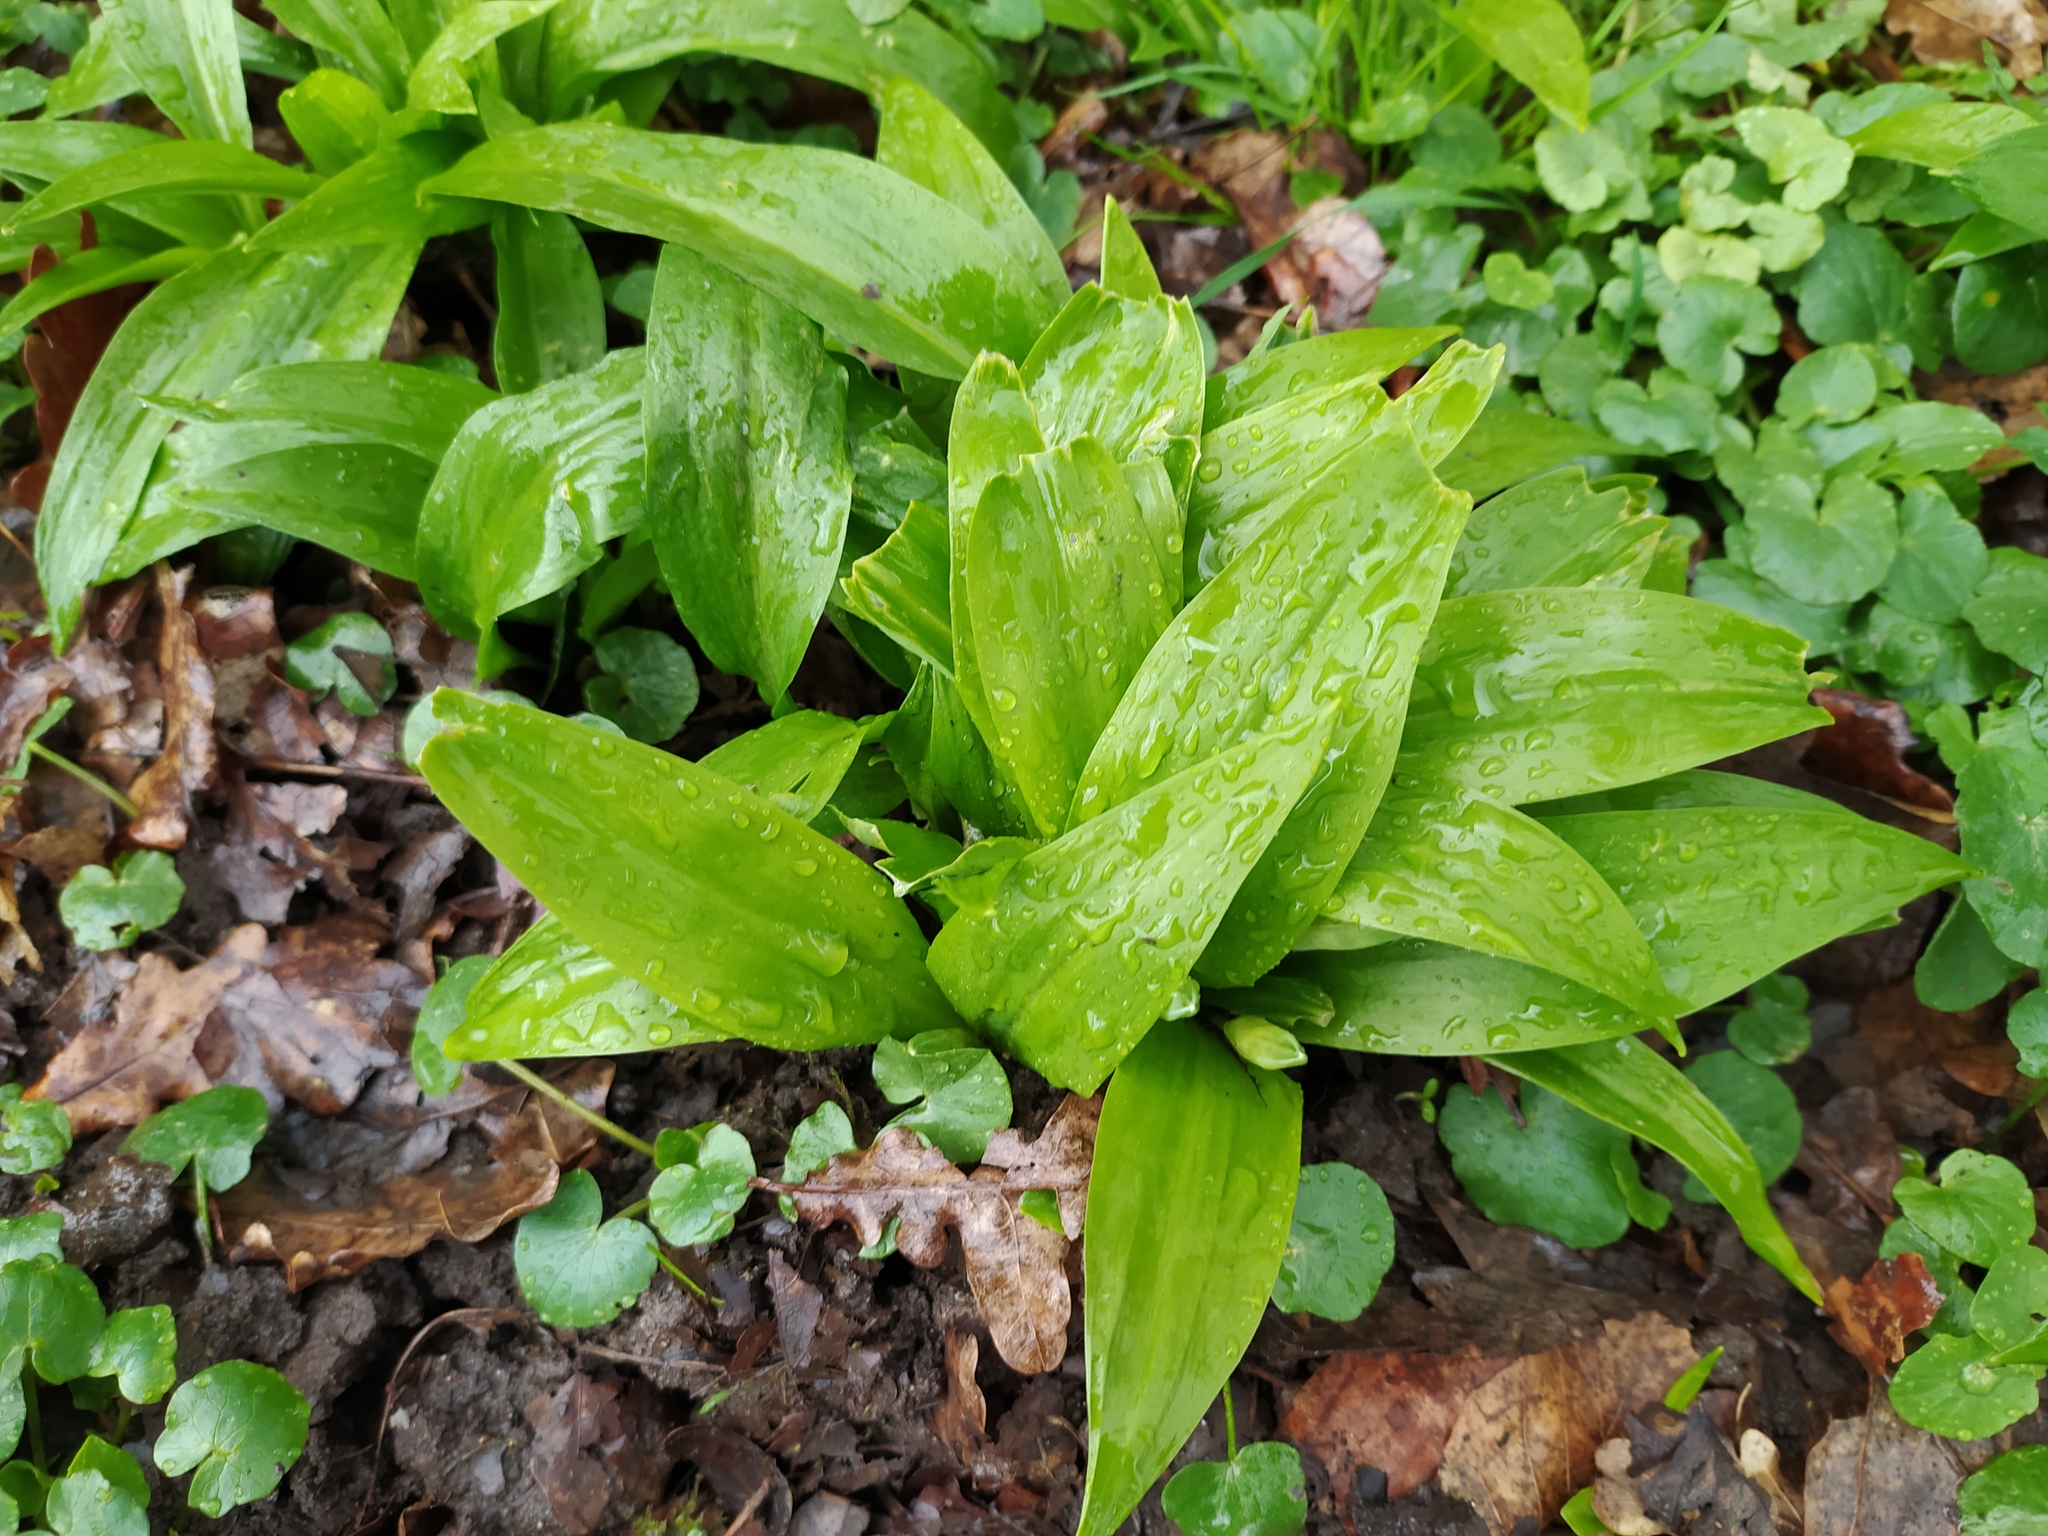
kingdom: Plantae
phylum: Tracheophyta
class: Liliopsida
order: Asparagales
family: Amaryllidaceae
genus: Allium
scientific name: Allium ursinum
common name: Ramsons
